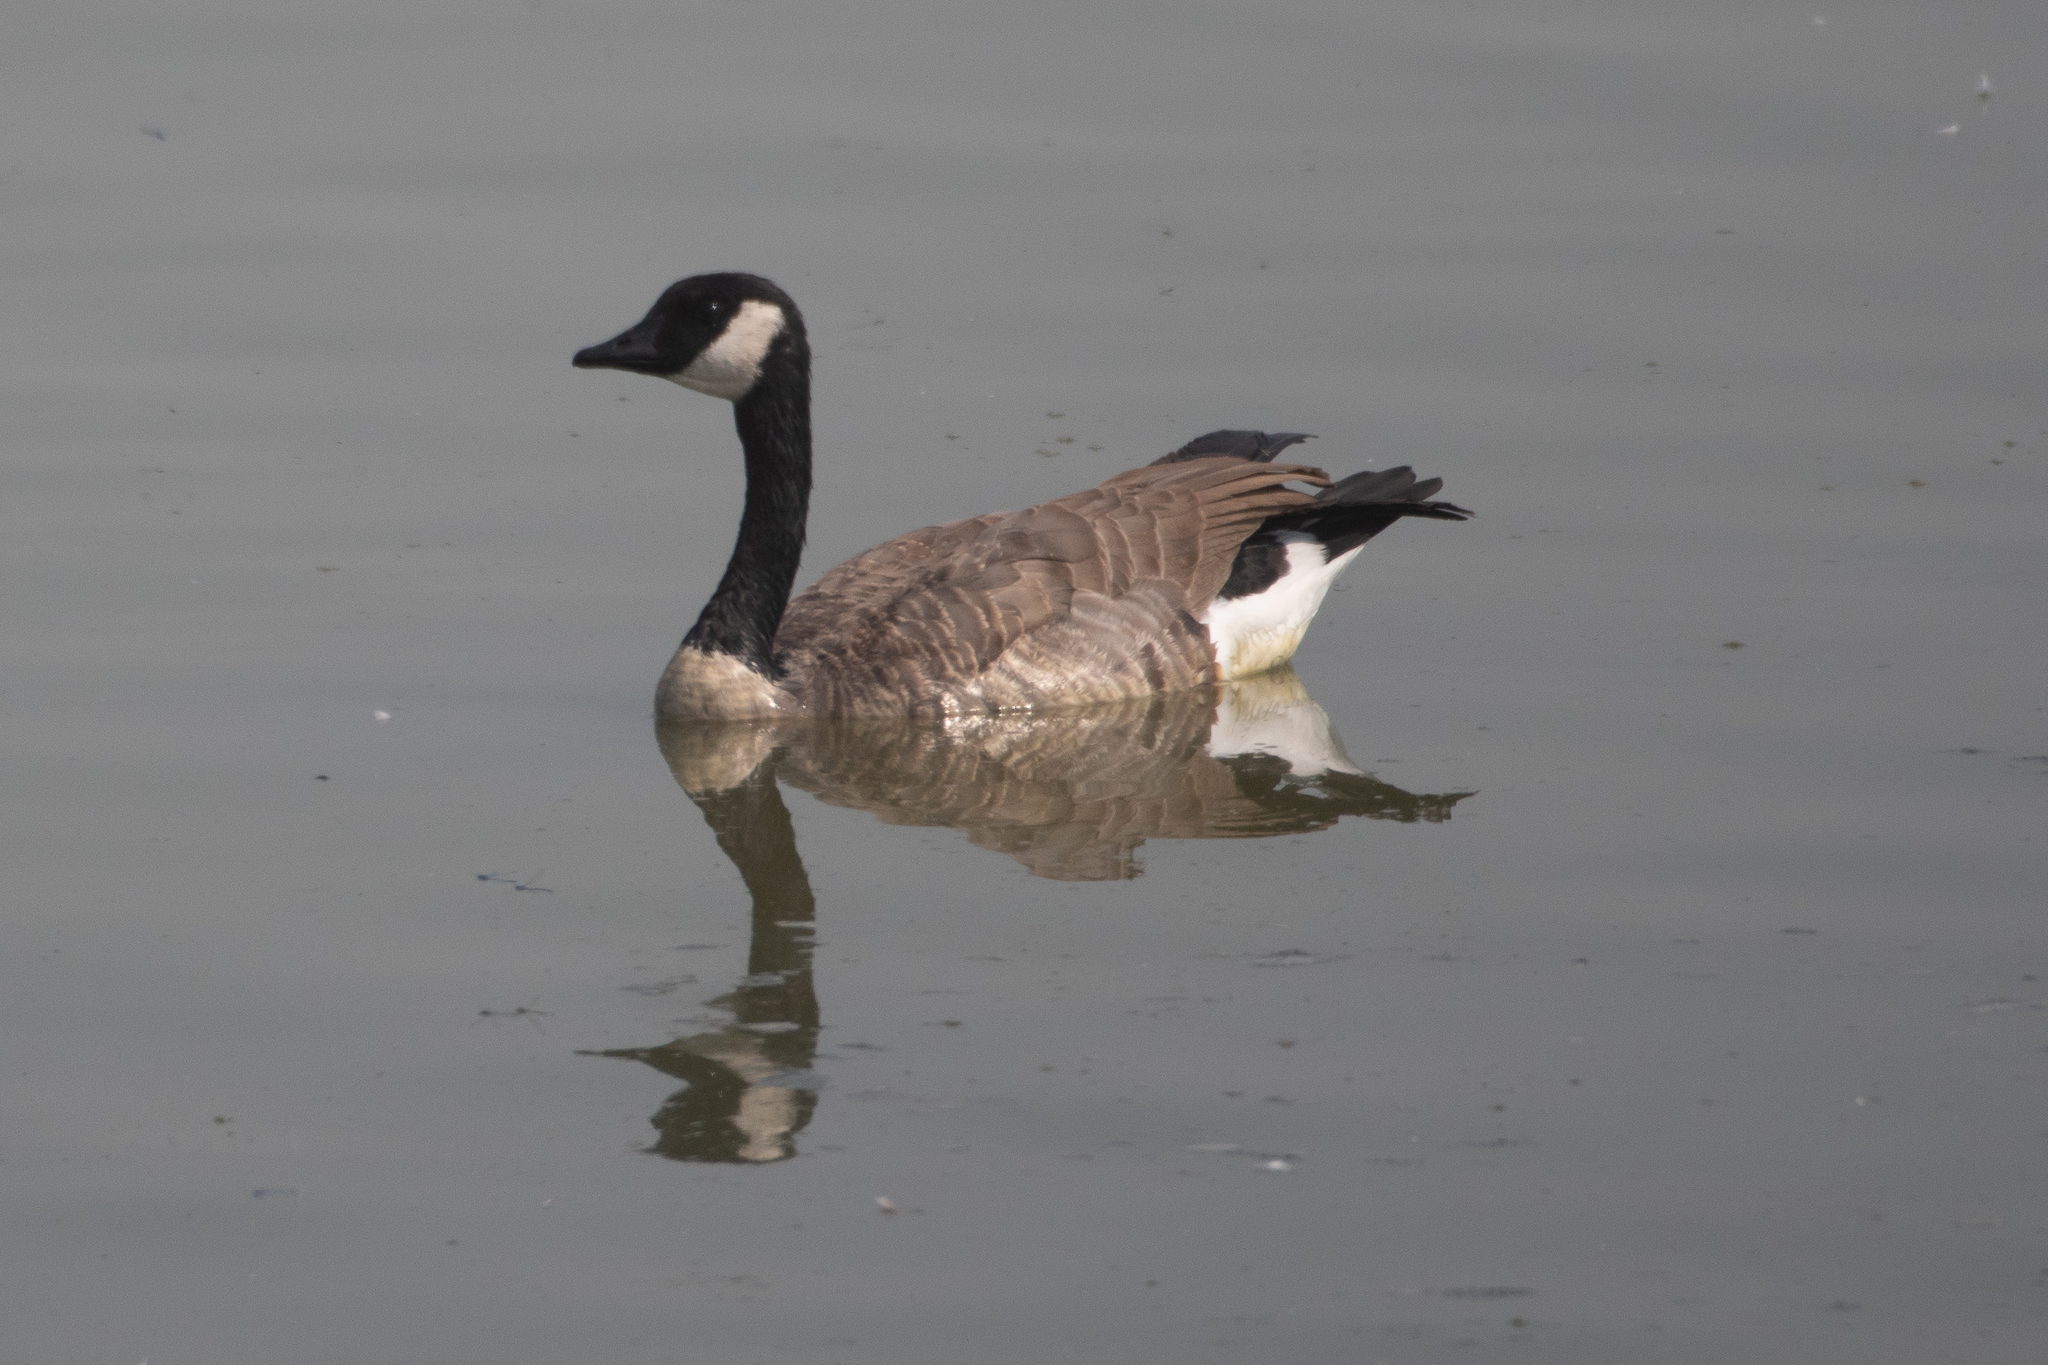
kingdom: Animalia
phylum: Chordata
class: Aves
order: Anseriformes
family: Anatidae
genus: Branta
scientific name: Branta canadensis
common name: Canada goose
